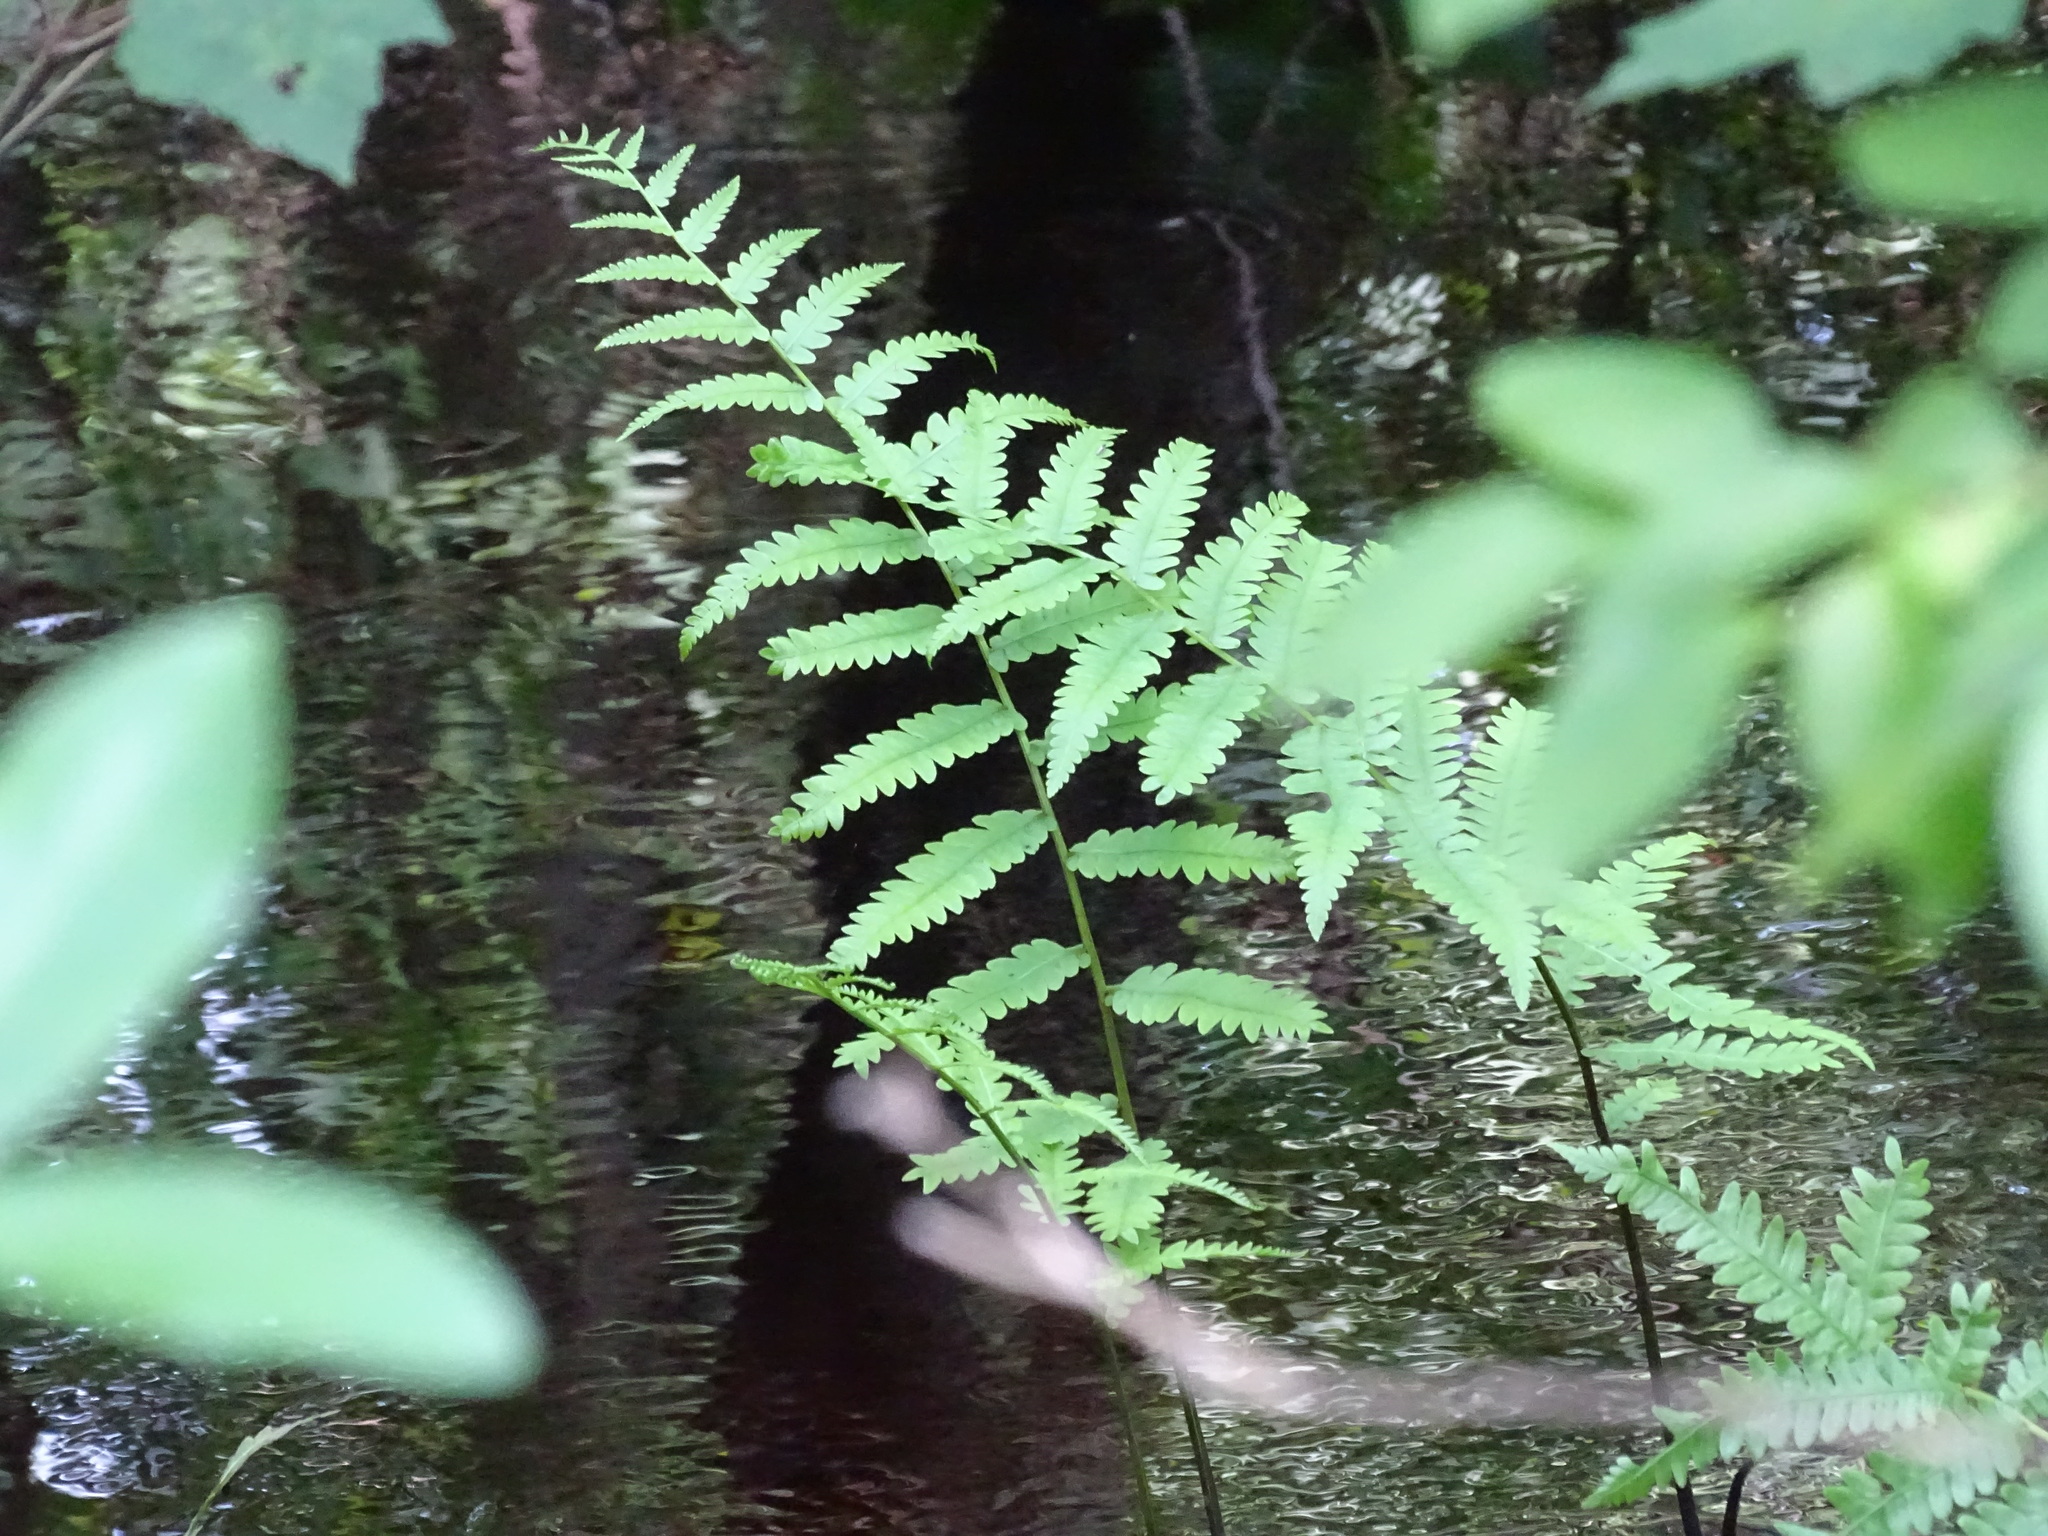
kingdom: Plantae
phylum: Tracheophyta
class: Polypodiopsida
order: Polypodiales
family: Blechnaceae
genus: Anchistea
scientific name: Anchistea virginica
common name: Virginia chain fern
